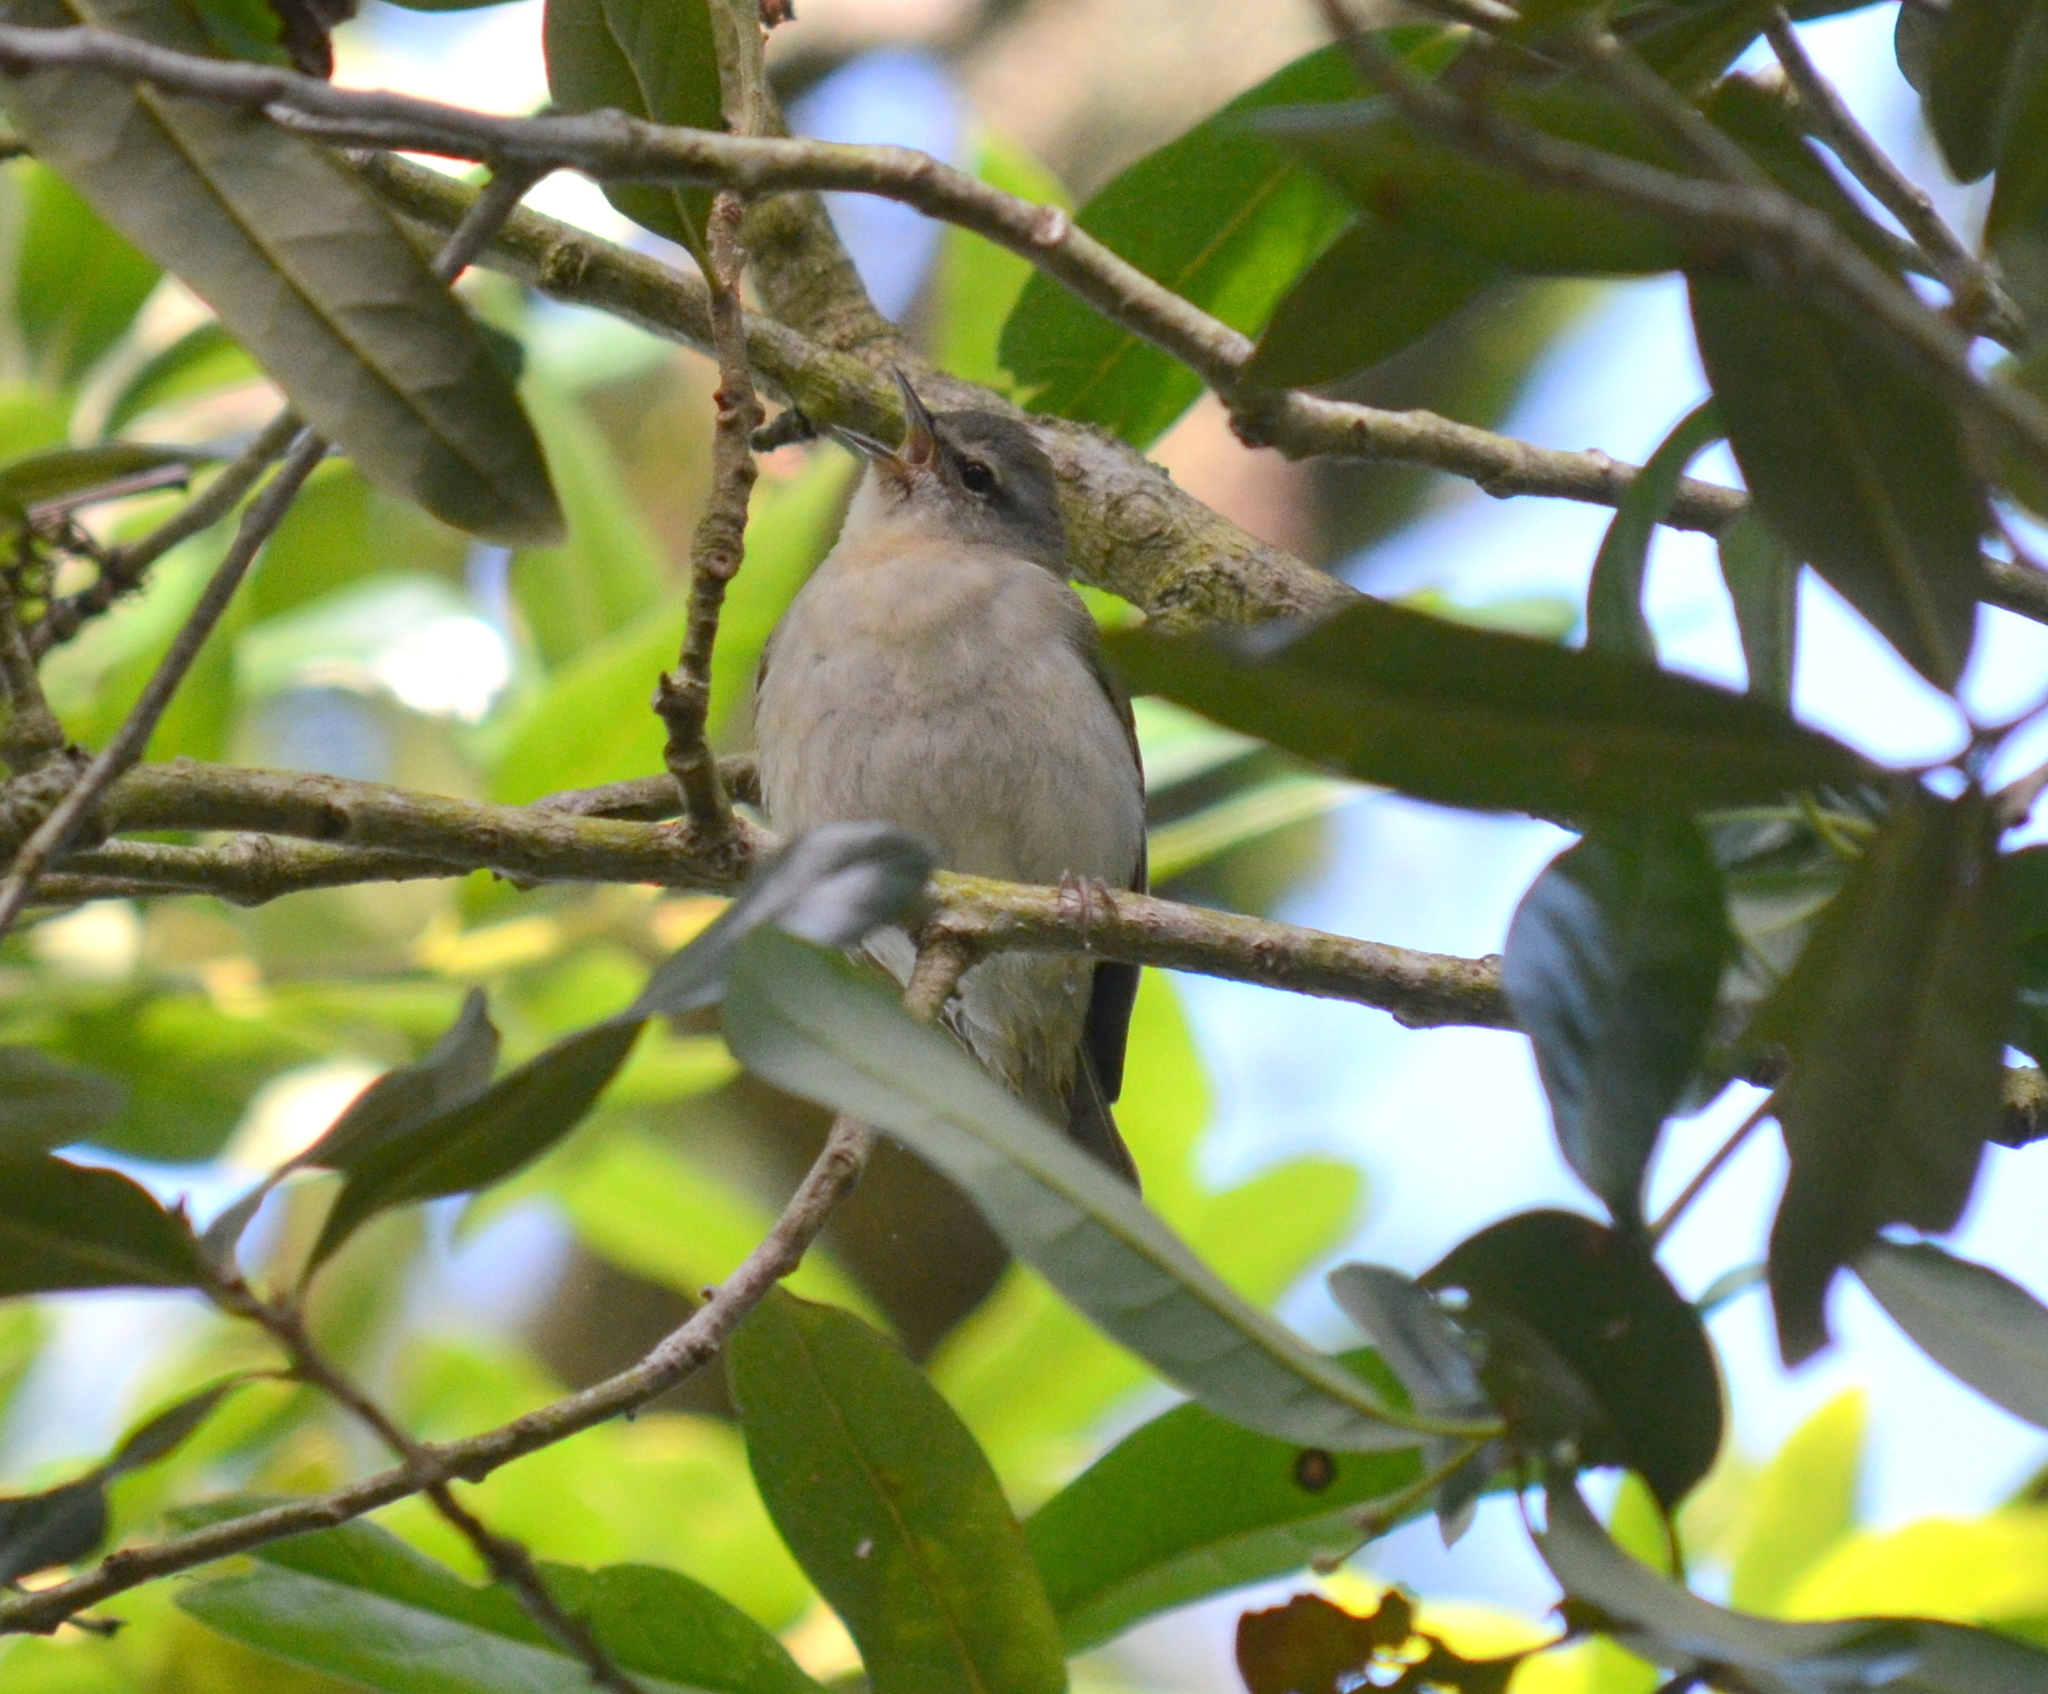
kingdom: Animalia
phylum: Chordata
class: Aves
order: Passeriformes
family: Parulidae
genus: Leiothlypis
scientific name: Leiothlypis peregrina
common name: Tennessee warbler
